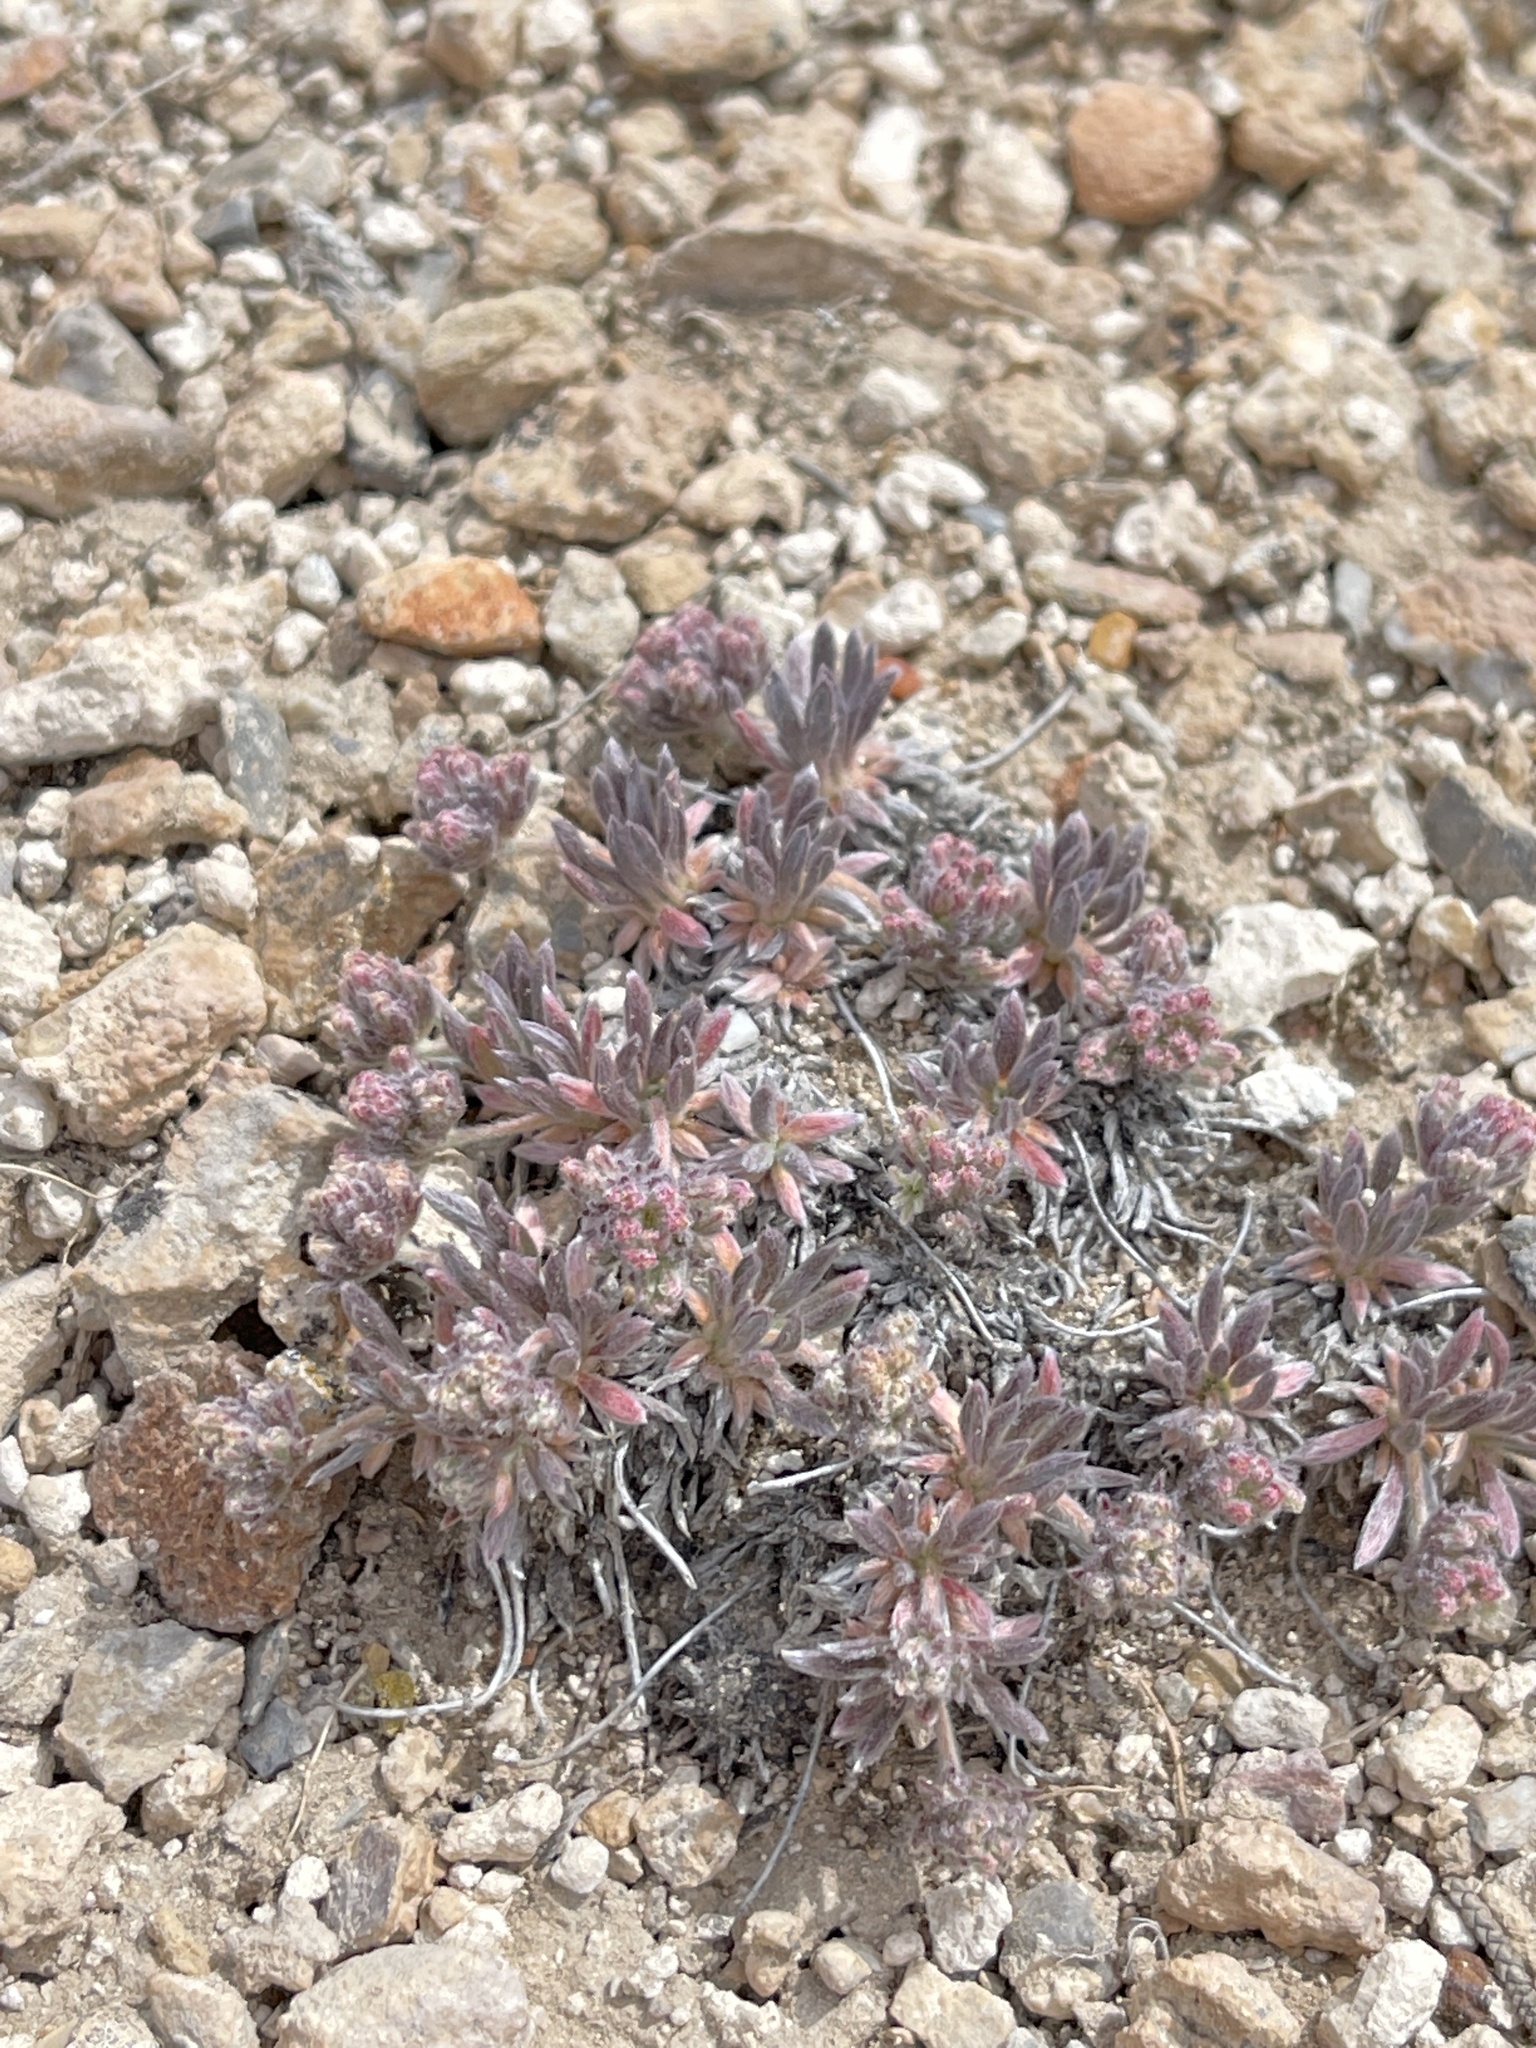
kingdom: Plantae
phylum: Tracheophyta
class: Magnoliopsida
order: Caryophyllales
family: Polygonaceae
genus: Eriogonum
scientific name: Eriogonum villiflorum
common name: Gray's wild buckwheat
